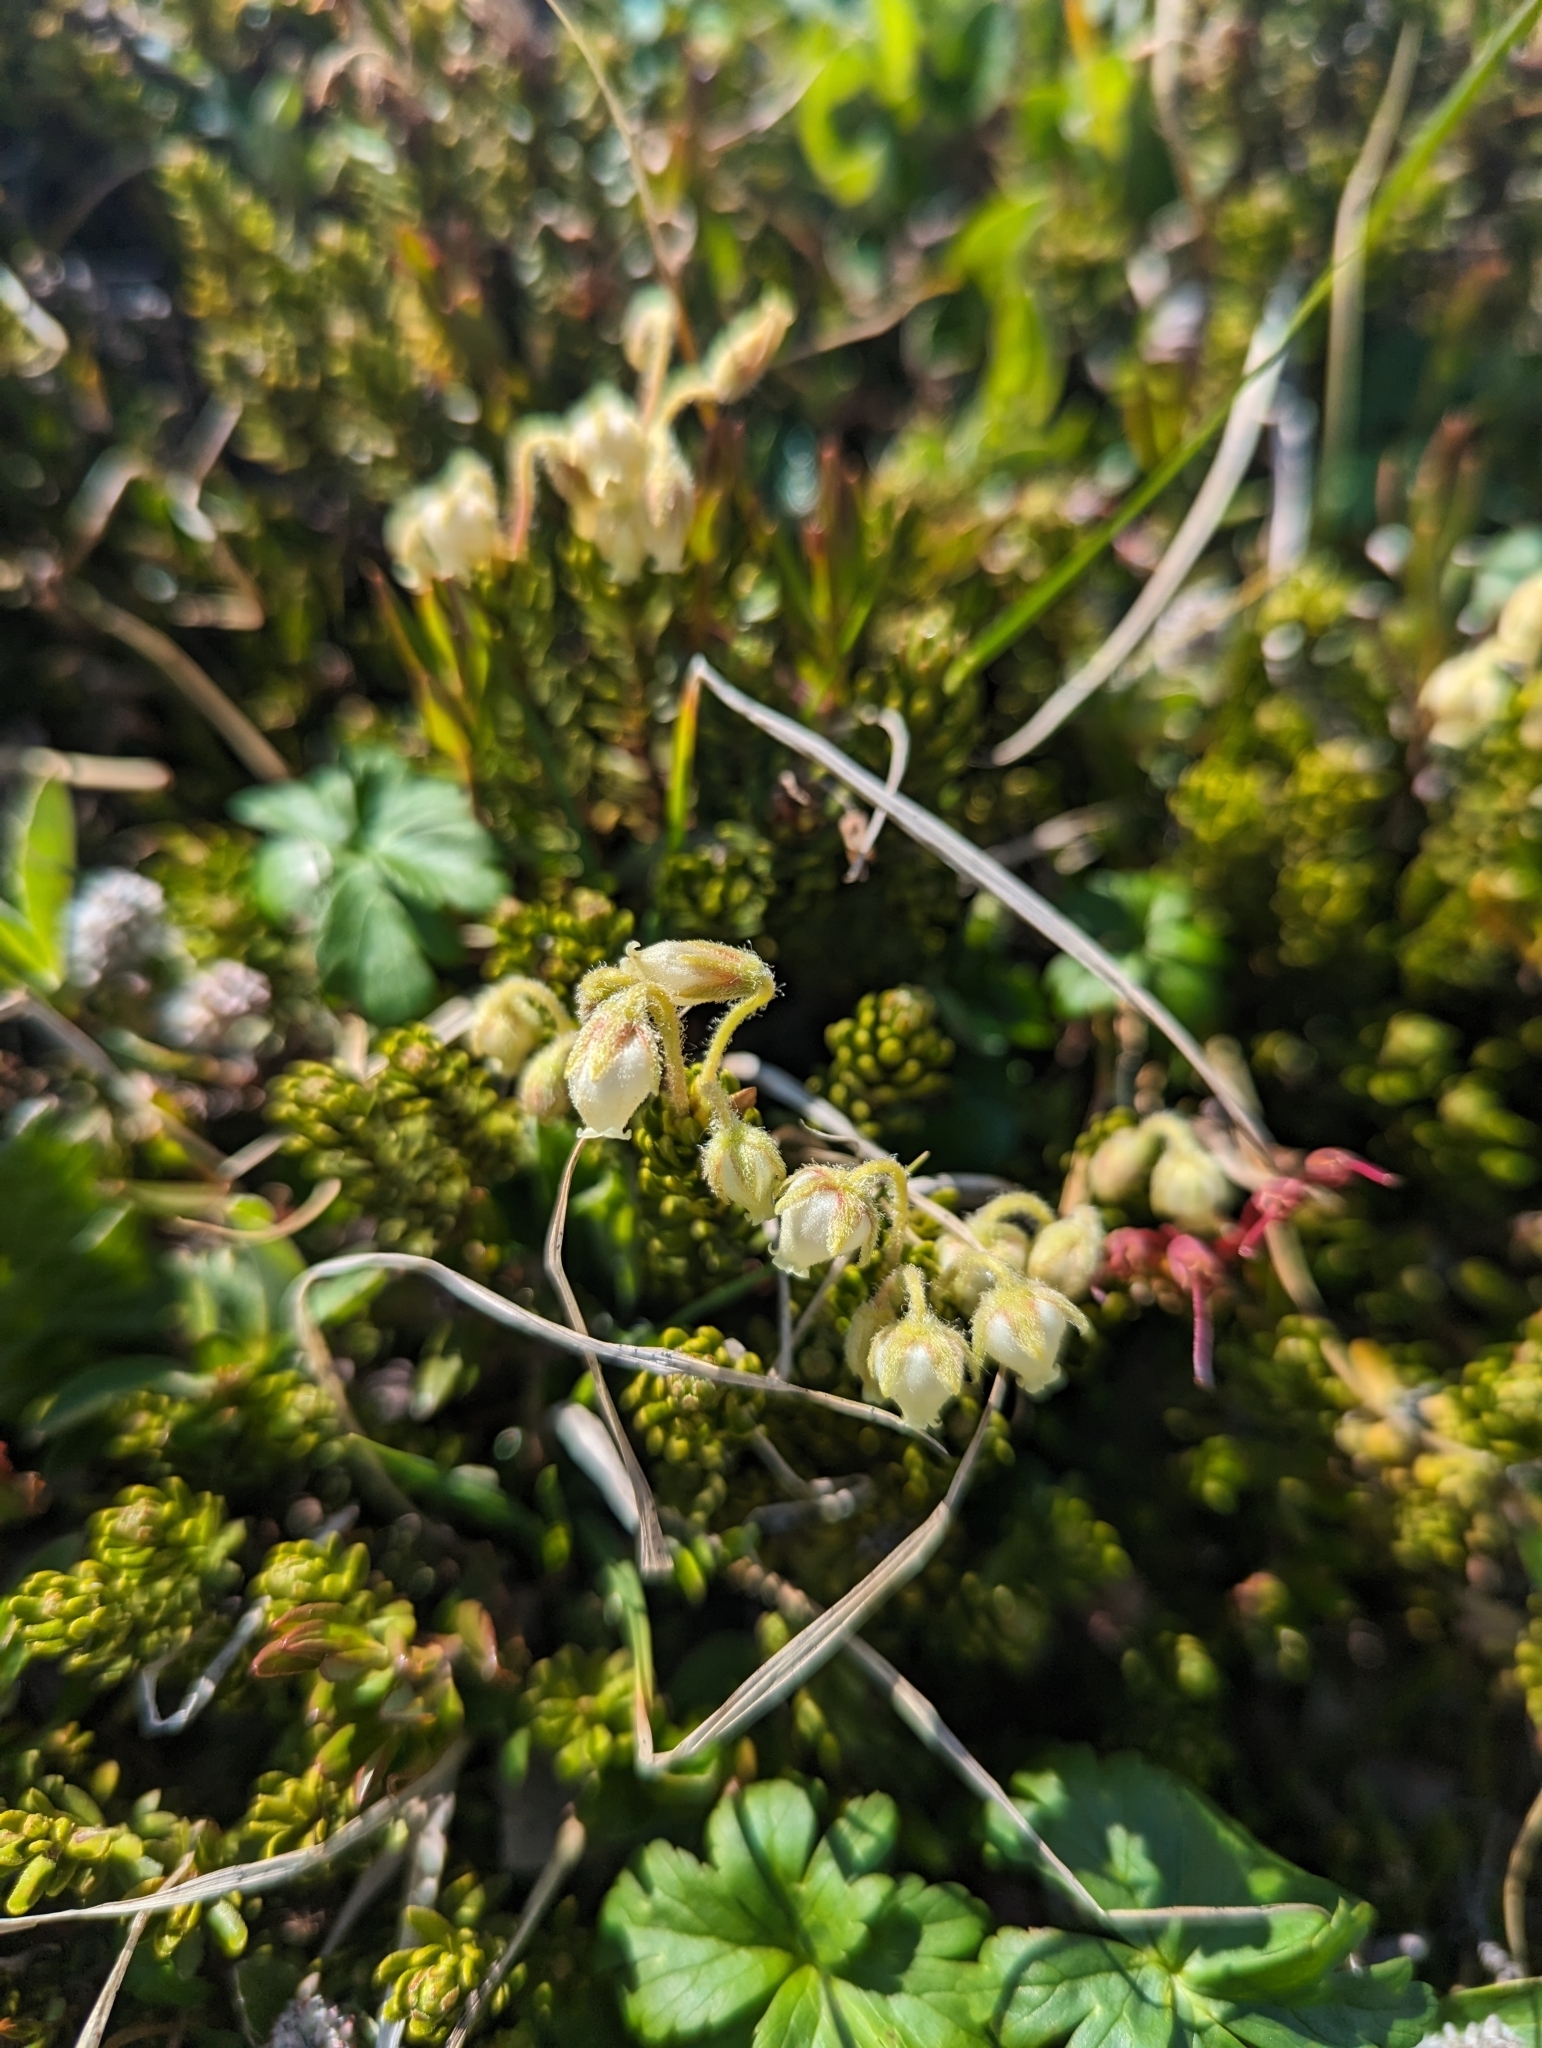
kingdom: Plantae
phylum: Tracheophyta
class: Magnoliopsida
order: Ericales
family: Ericaceae
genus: Phyllodoce
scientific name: Phyllodoce glanduliflora
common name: Cream mountain heather
